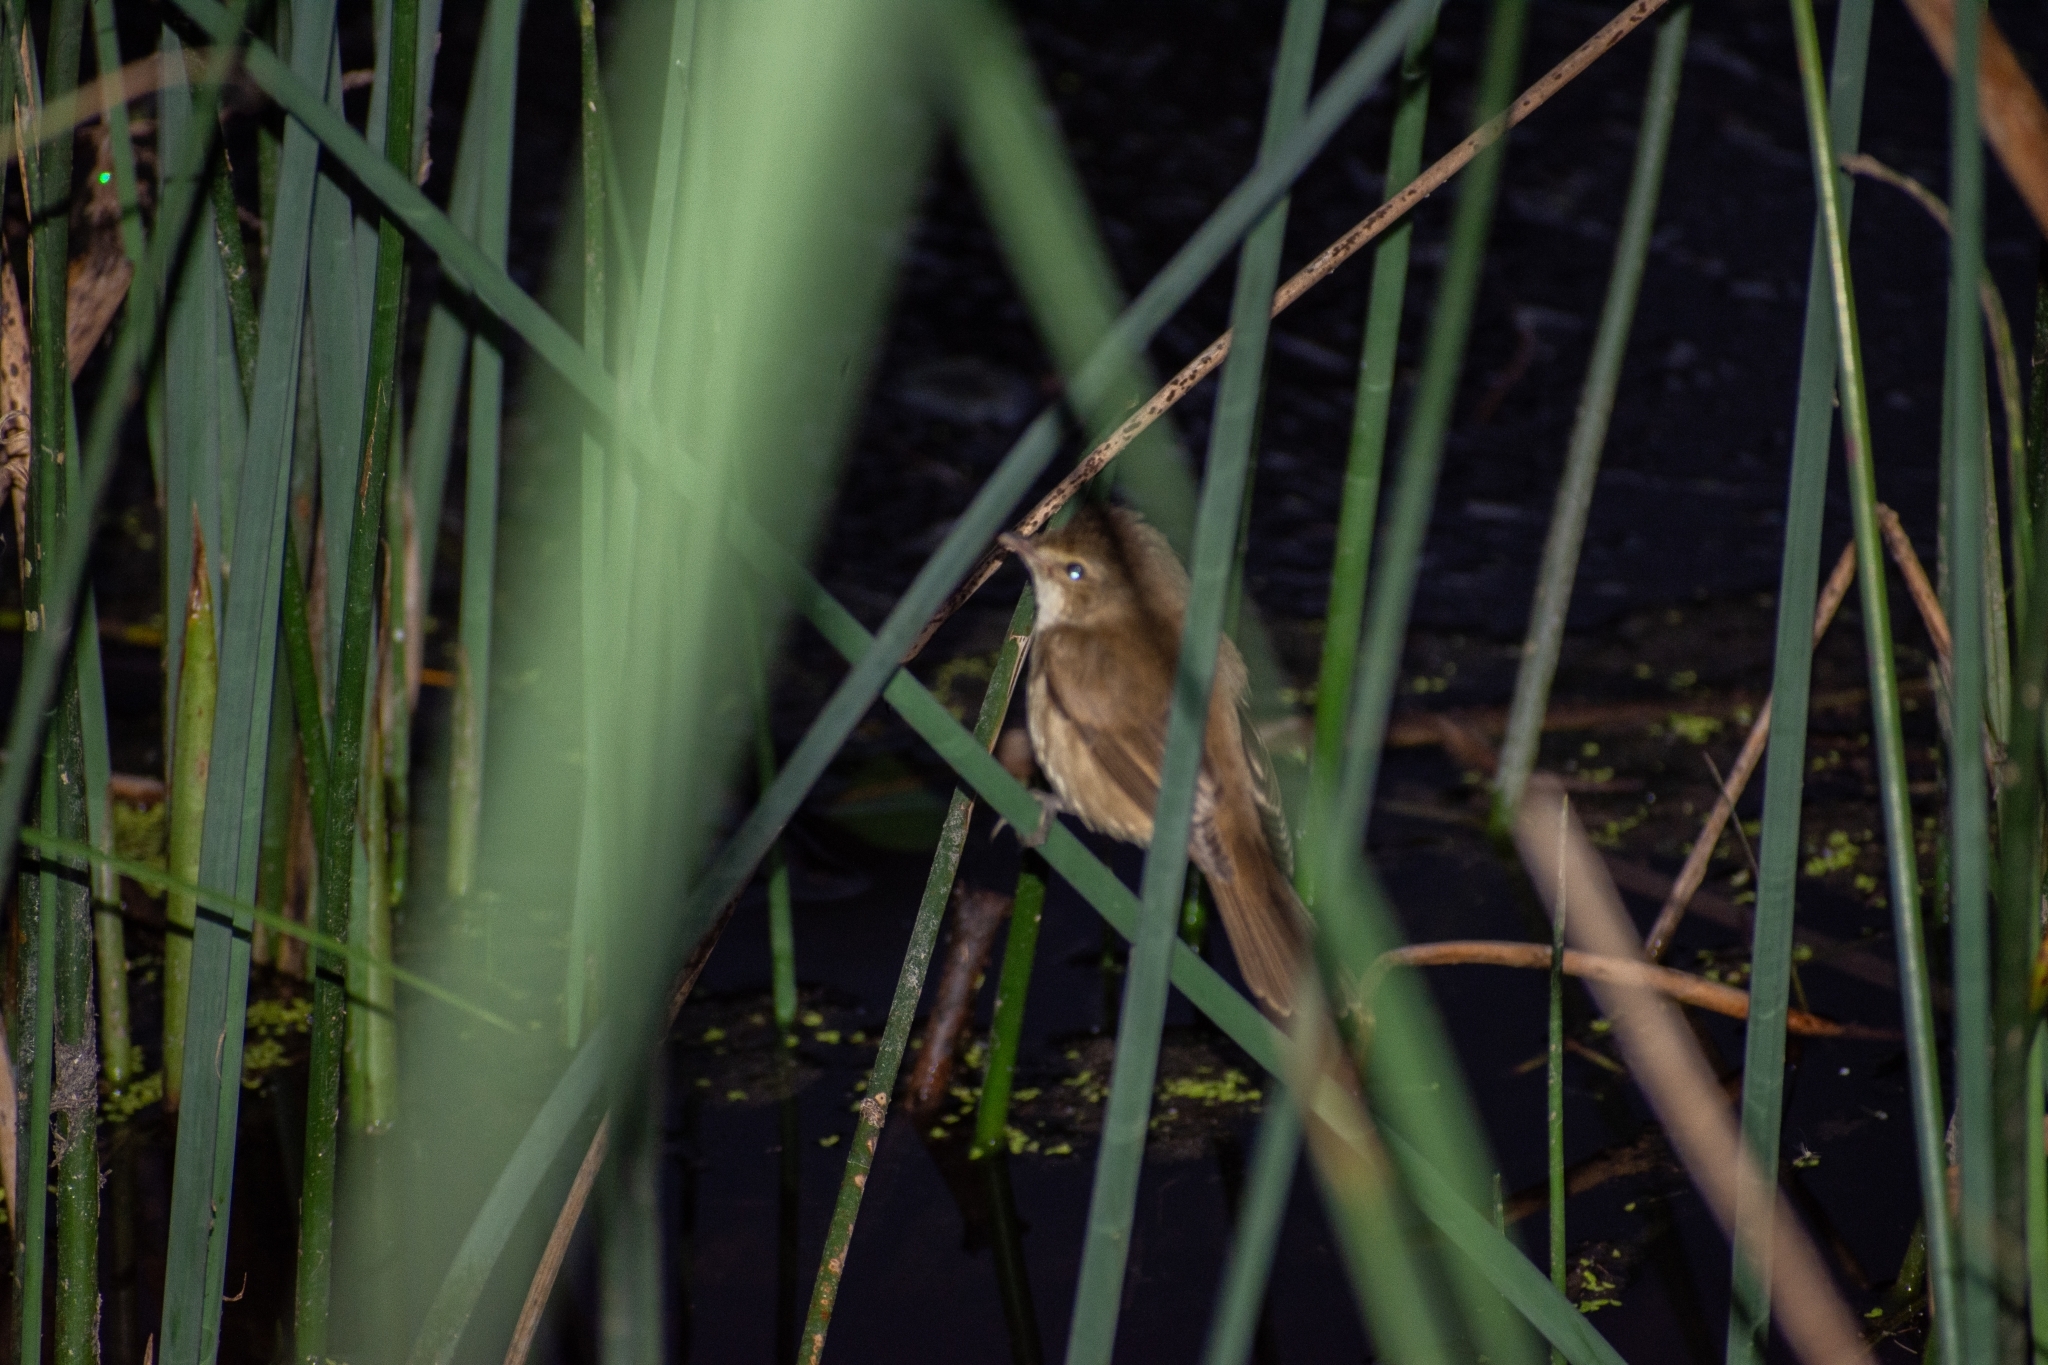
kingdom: Animalia
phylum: Chordata
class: Aves
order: Passeriformes
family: Acrocephalidae
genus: Acrocephalus
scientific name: Acrocephalus australis
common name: Australian reed warbler
